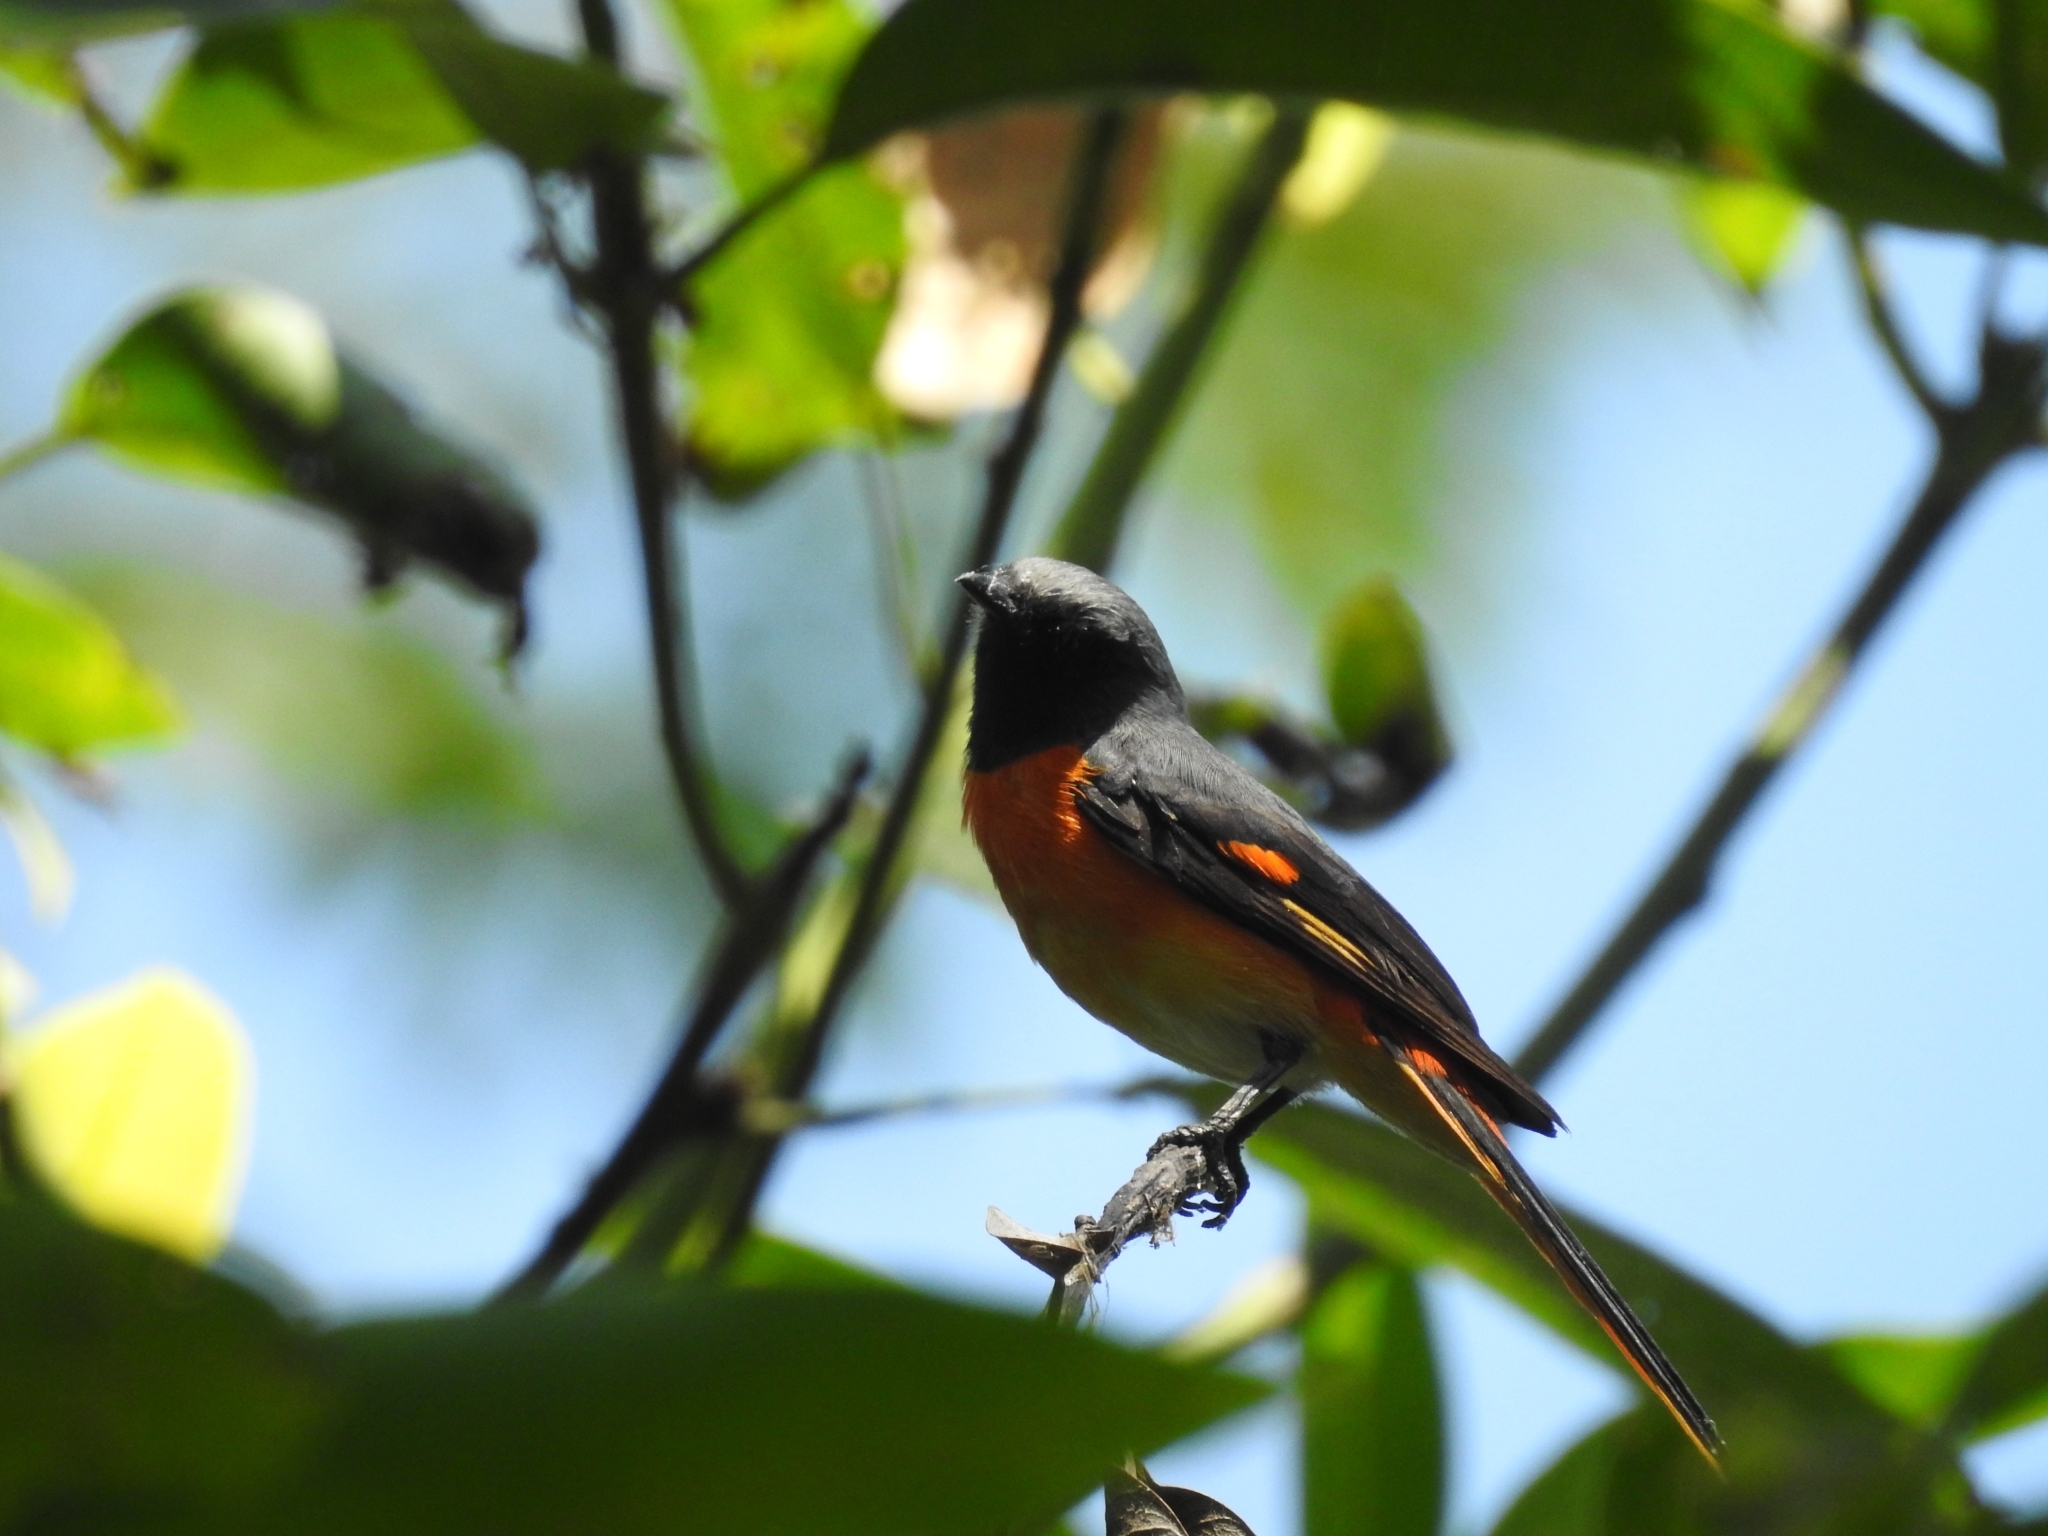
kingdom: Animalia
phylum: Chordata
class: Aves
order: Passeriformes
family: Campephagidae
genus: Pericrocotus
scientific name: Pericrocotus cinnamomeus
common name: Small minivet
